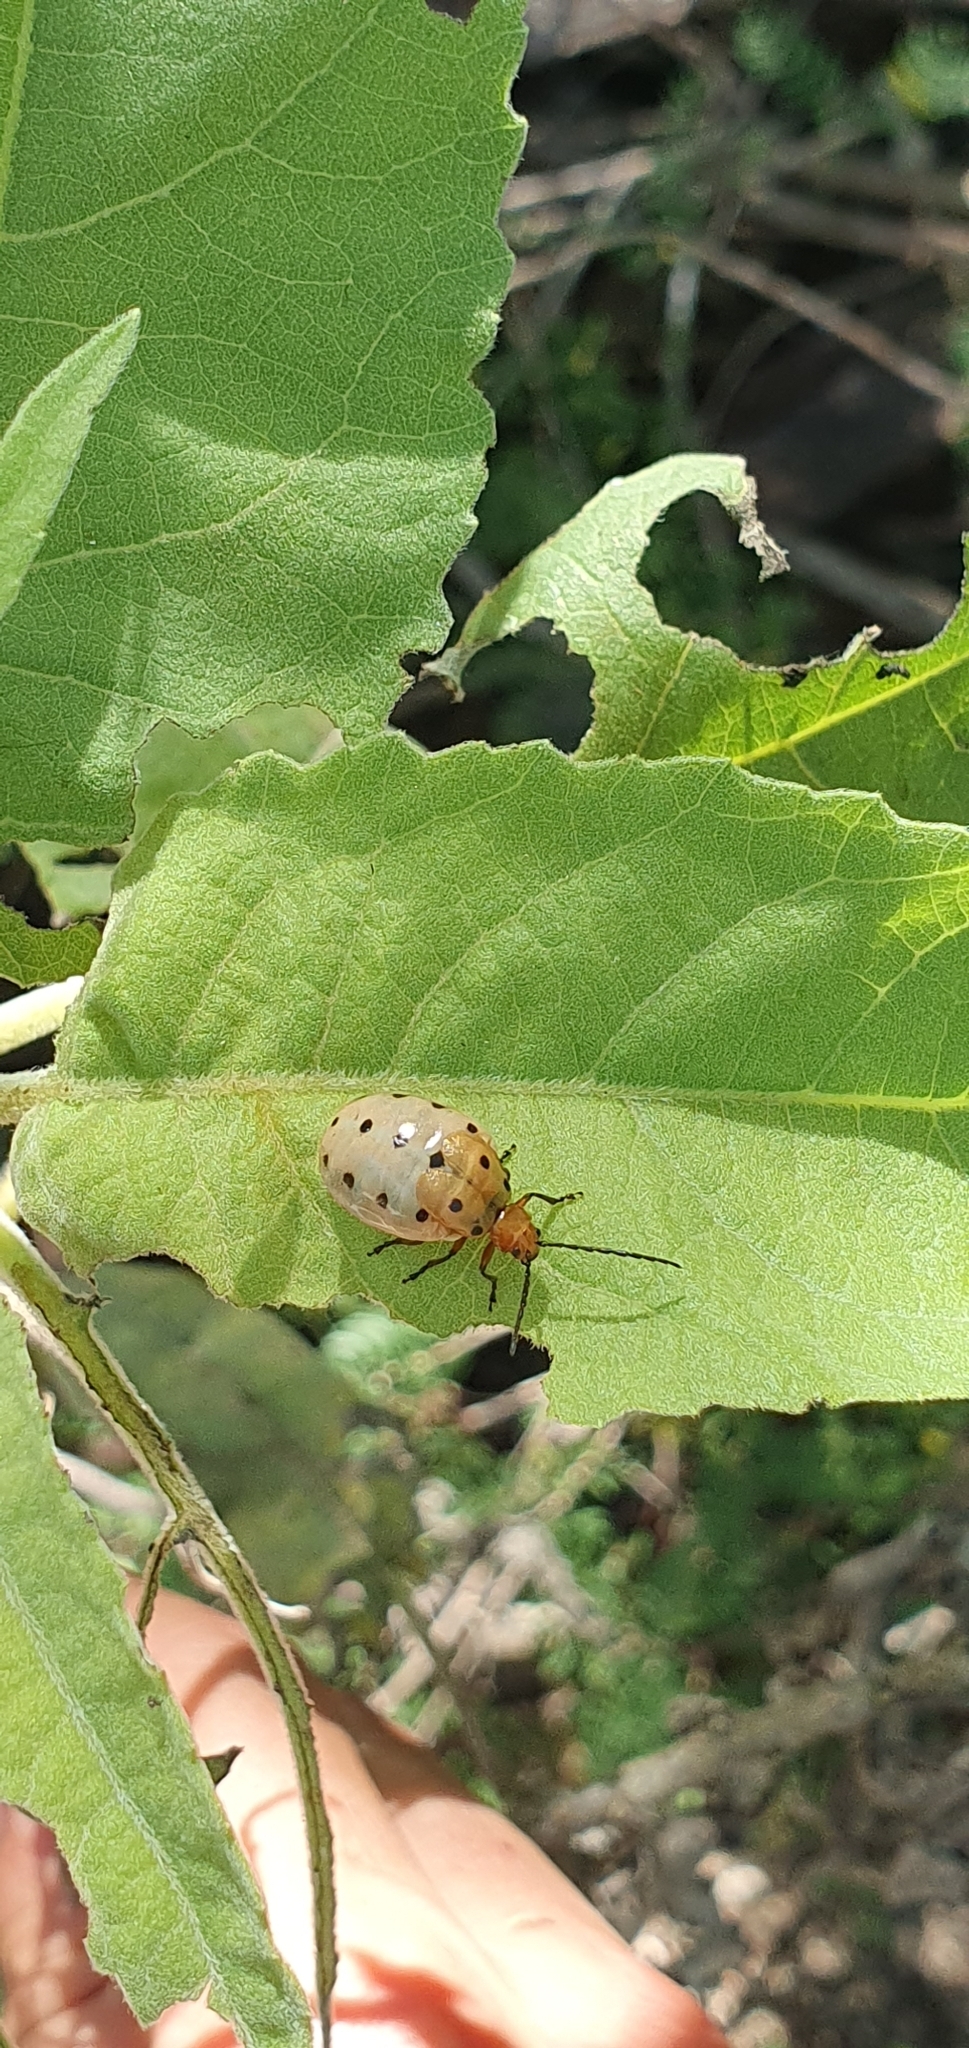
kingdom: Animalia
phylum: Arthropoda
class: Insecta
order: Coleoptera
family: Chrysomelidae
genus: Metacycla
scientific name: Metacycla
